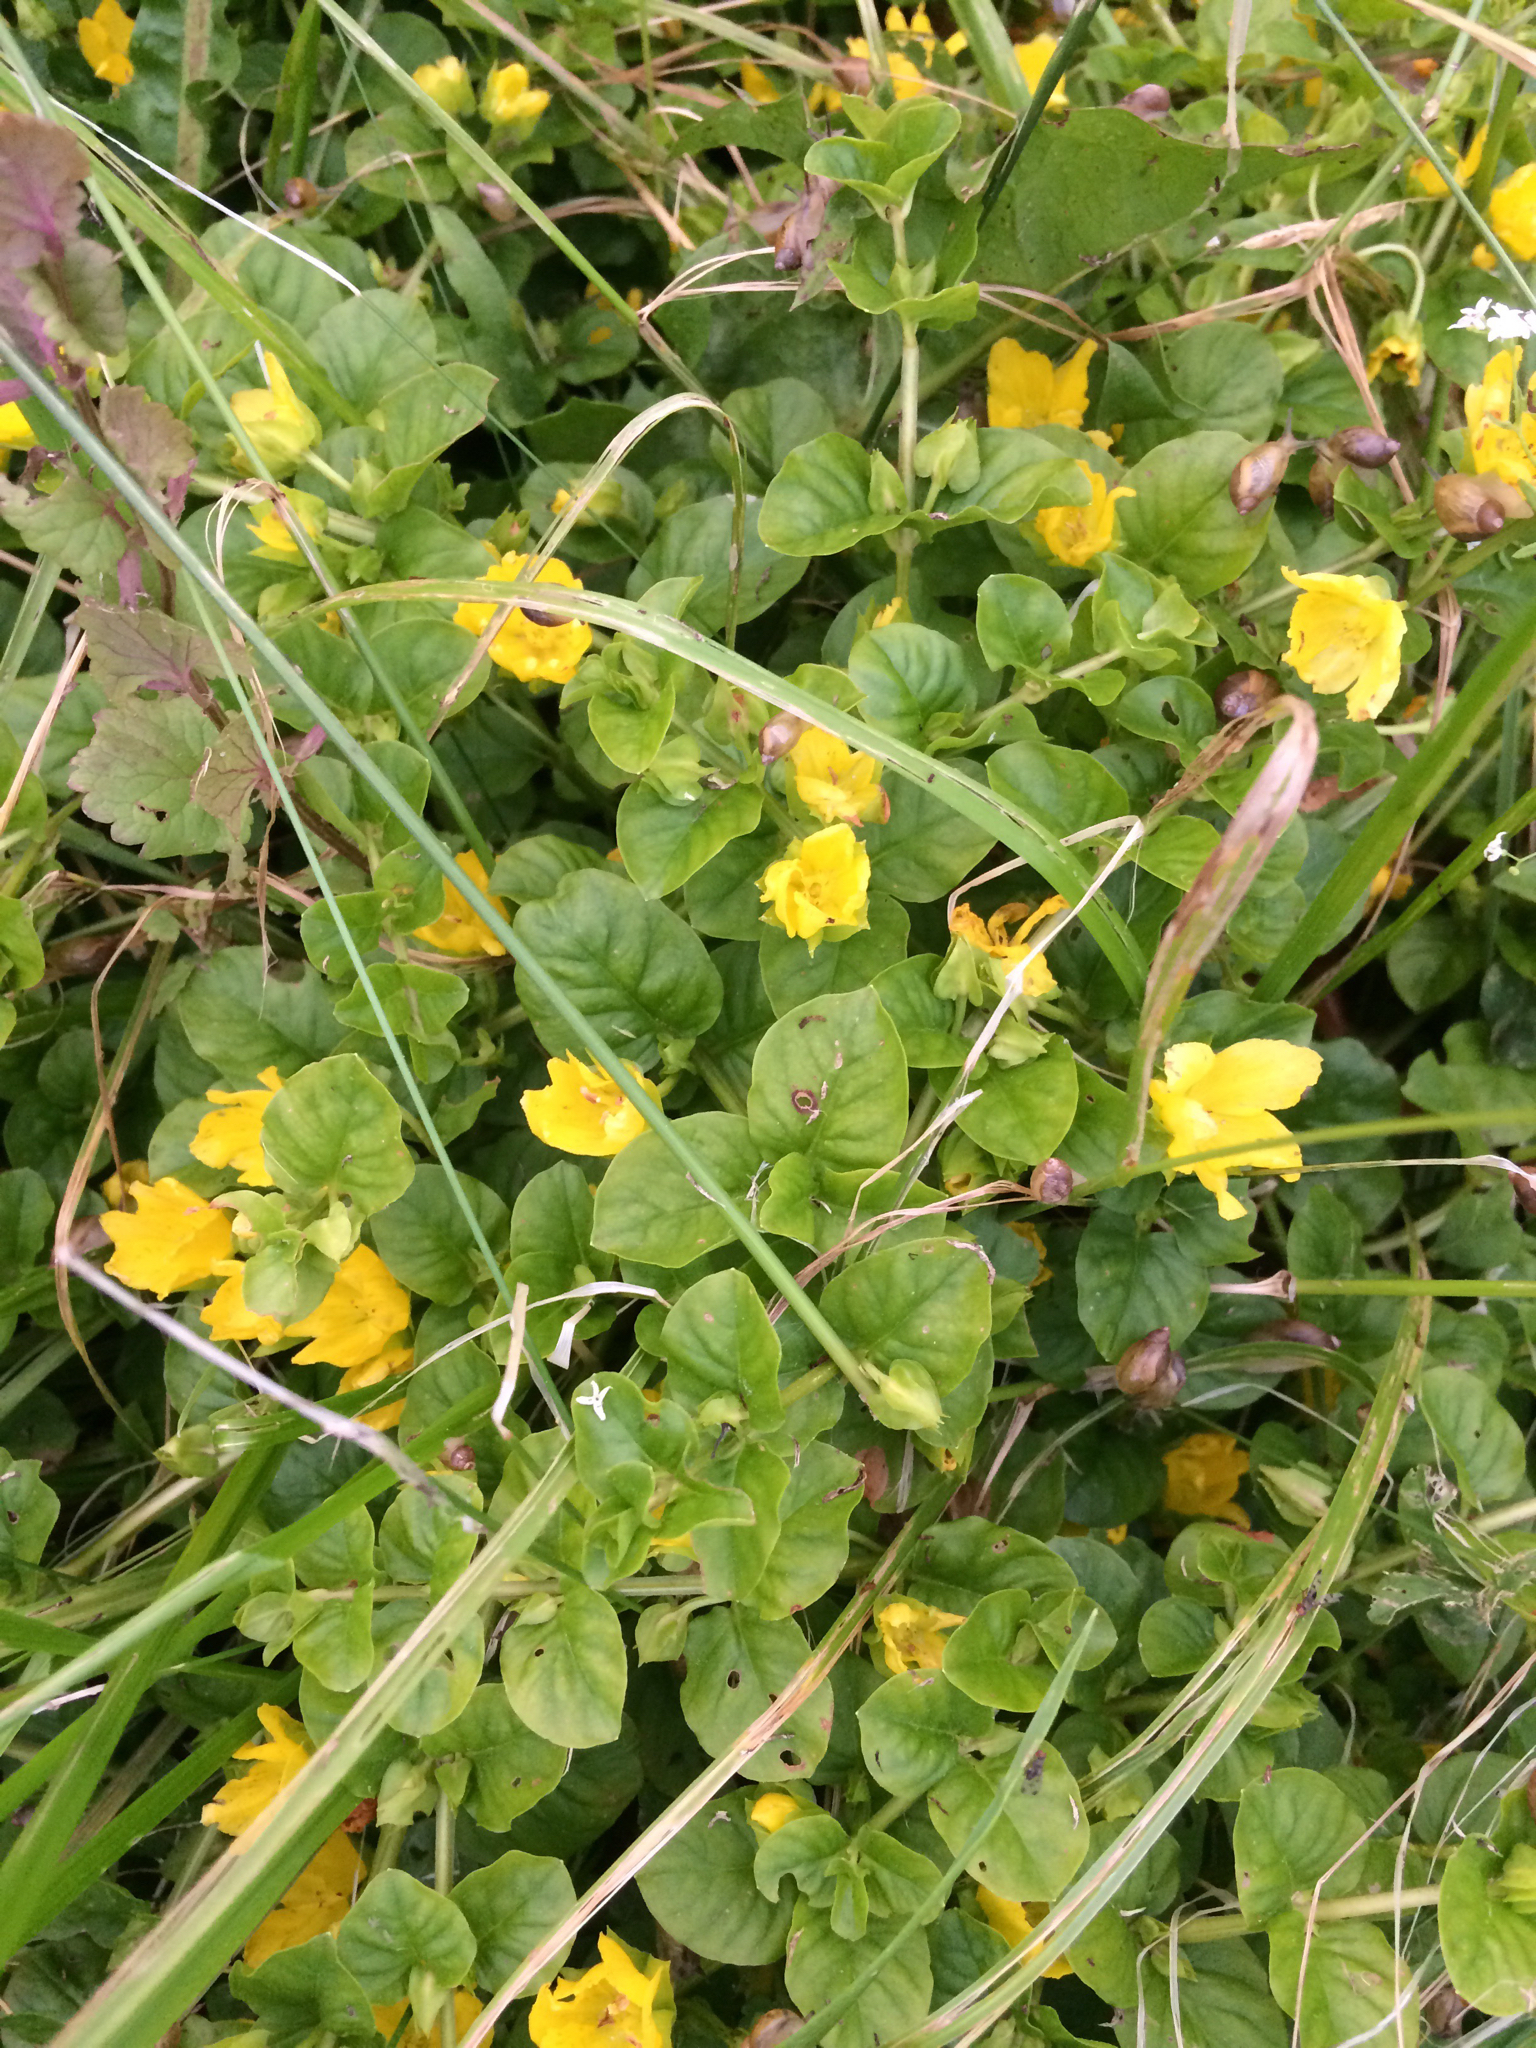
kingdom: Plantae
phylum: Tracheophyta
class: Magnoliopsida
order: Ericales
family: Primulaceae
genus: Lysimachia
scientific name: Lysimachia nummularia
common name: Moneywort
